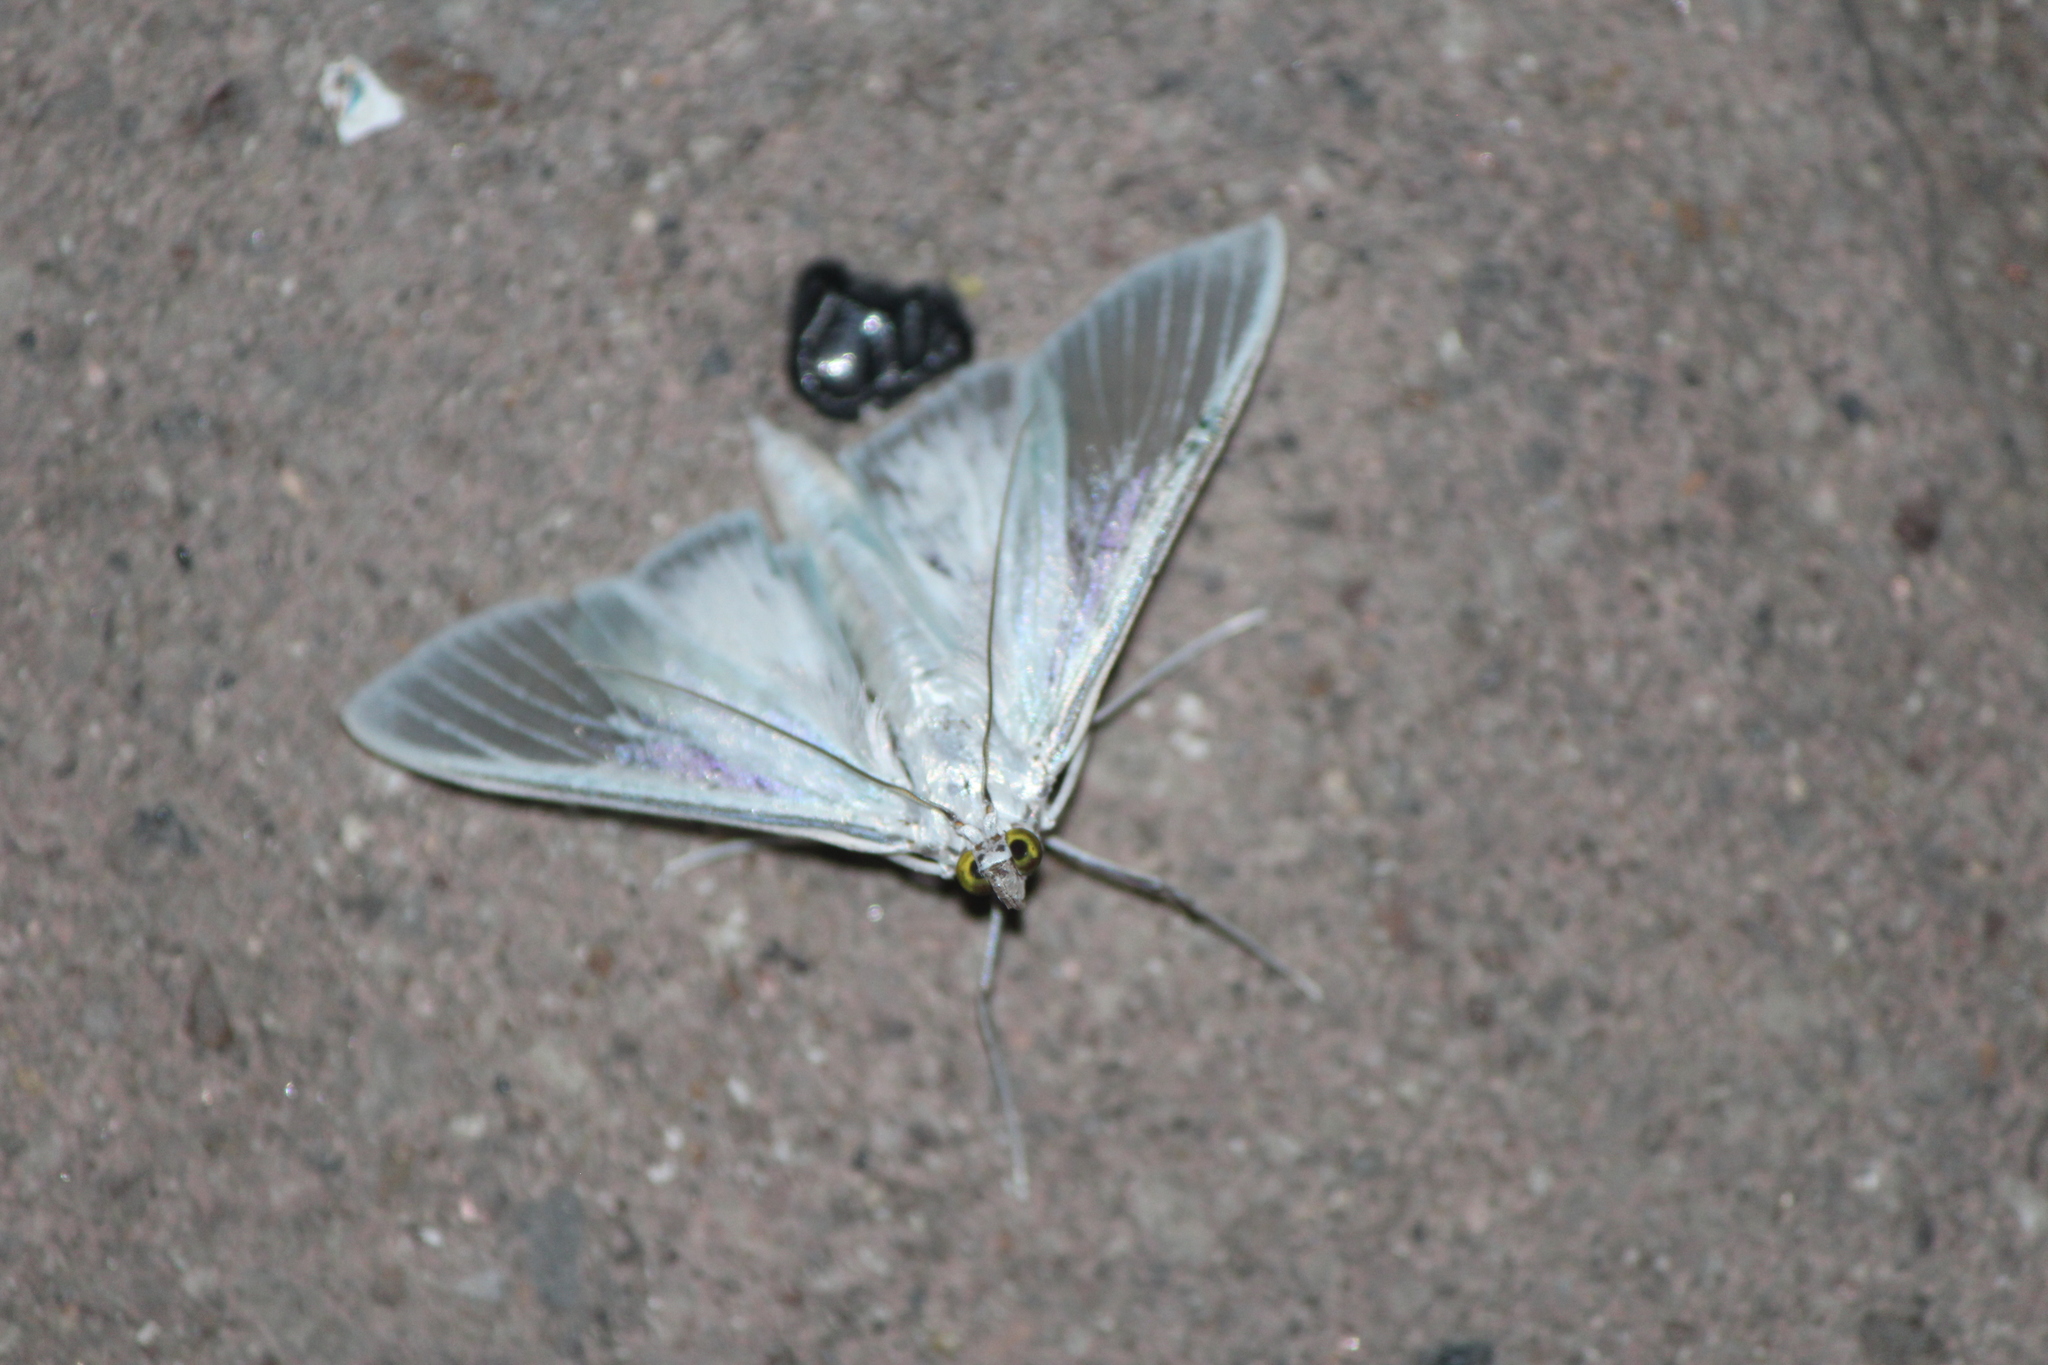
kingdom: Animalia
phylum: Arthropoda
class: Insecta
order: Lepidoptera
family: Crambidae
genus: Palpita
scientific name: Palpita flegia
